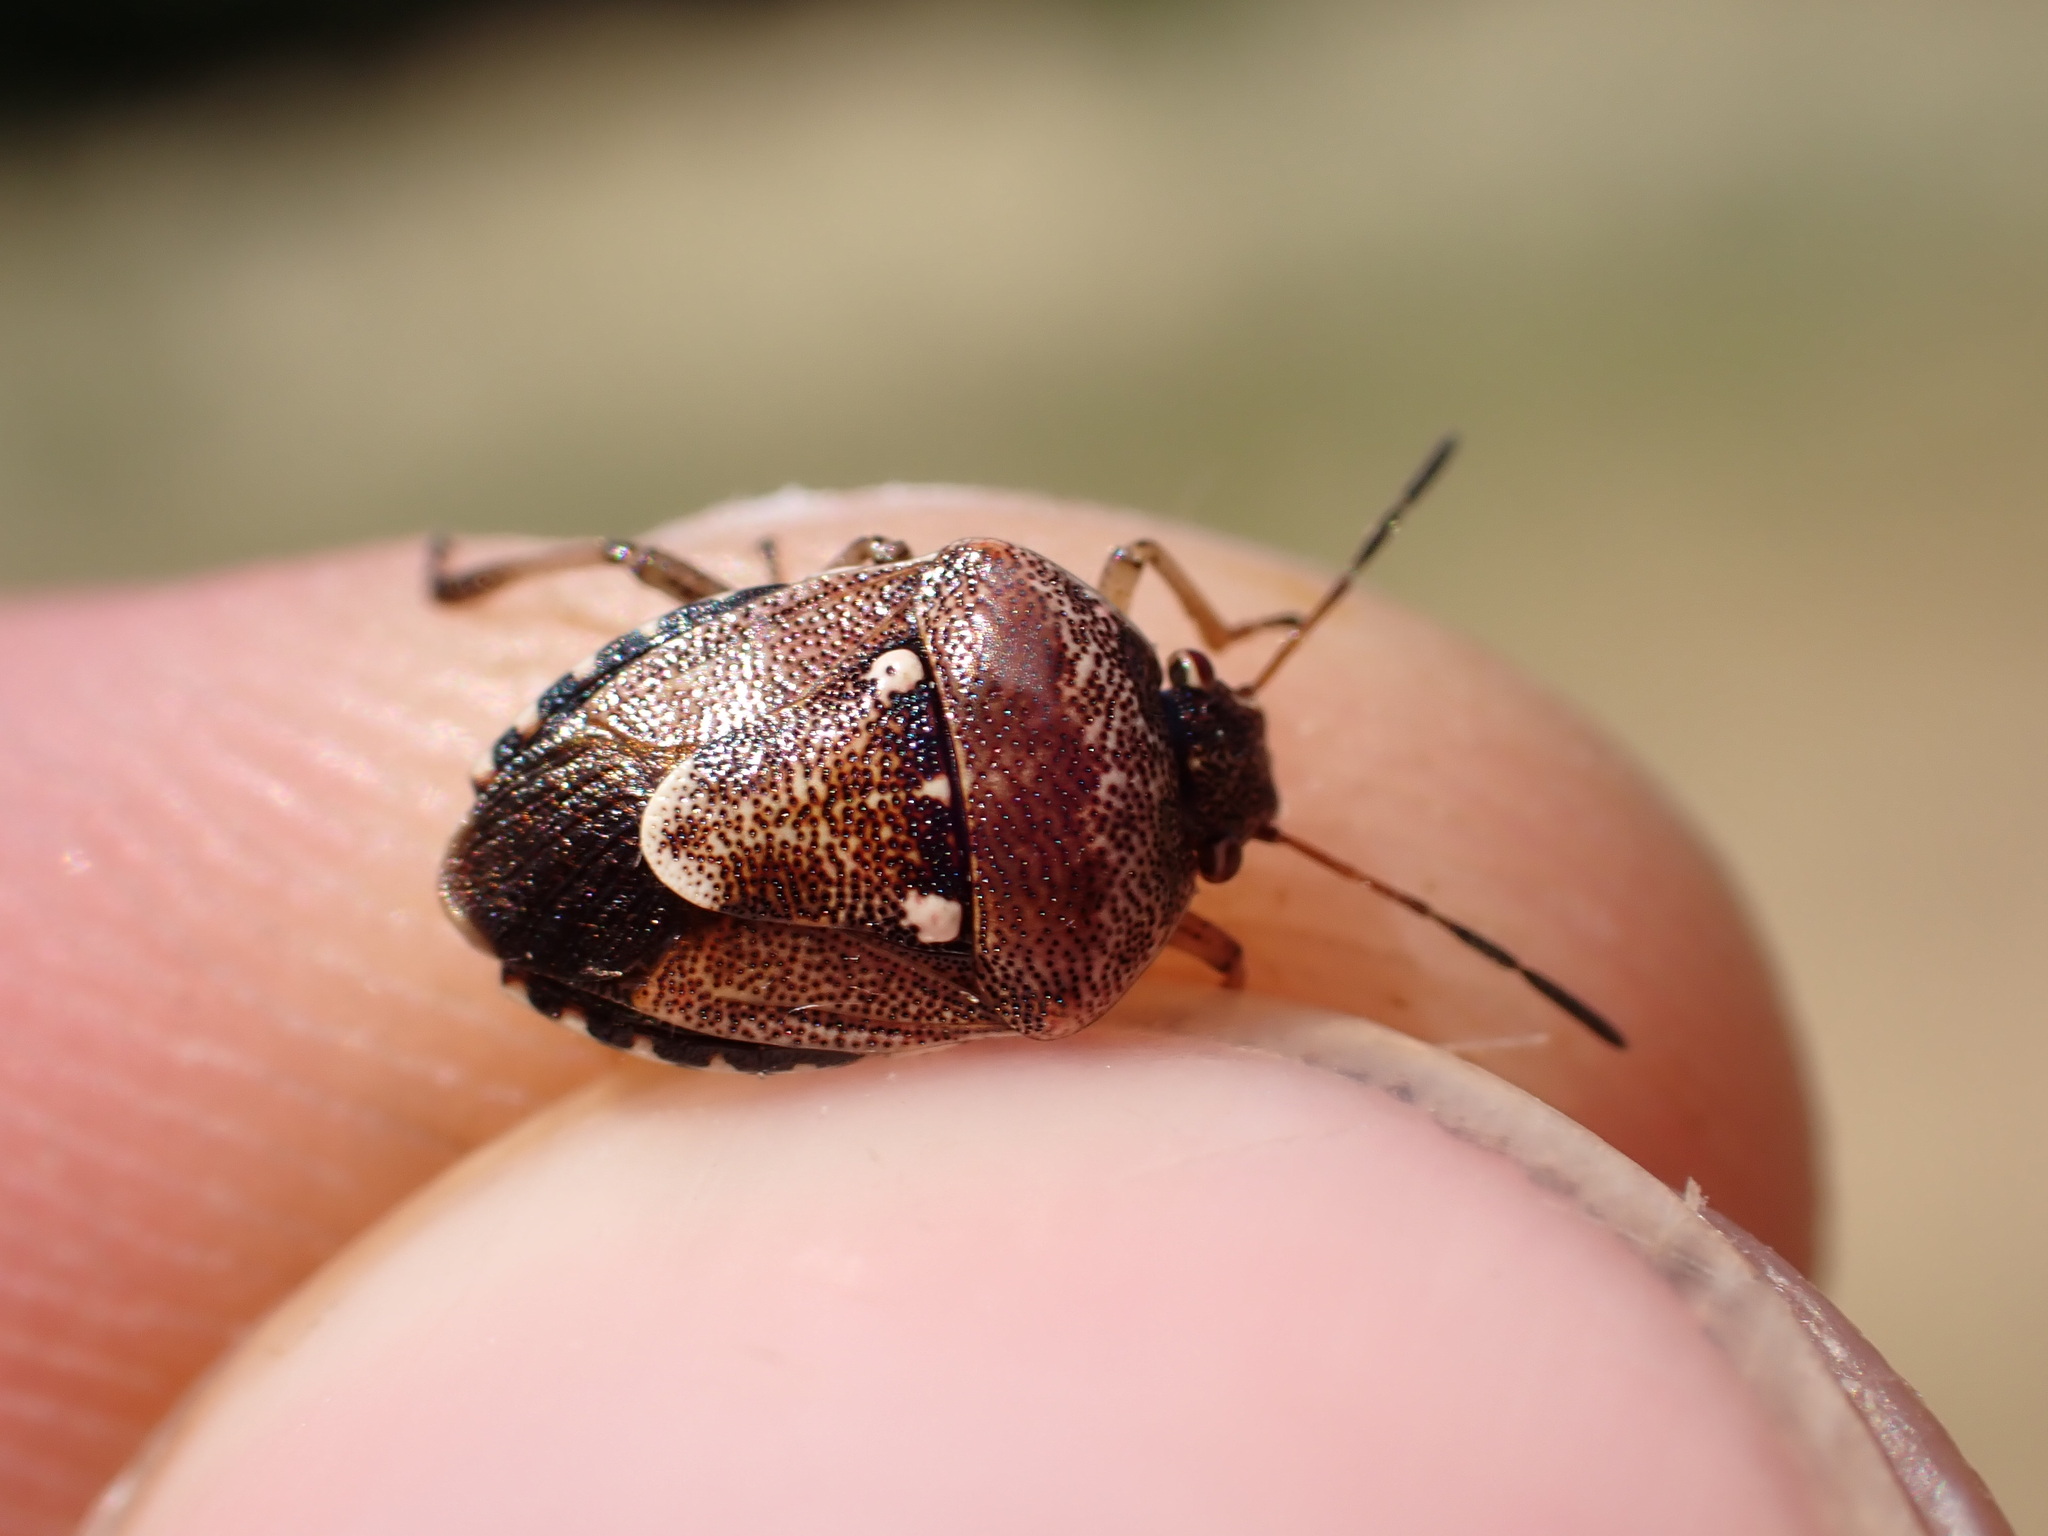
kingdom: Animalia
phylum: Arthropoda
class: Insecta
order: Hemiptera
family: Pentatomidae
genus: Stagonomus
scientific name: Stagonomus amoenus
